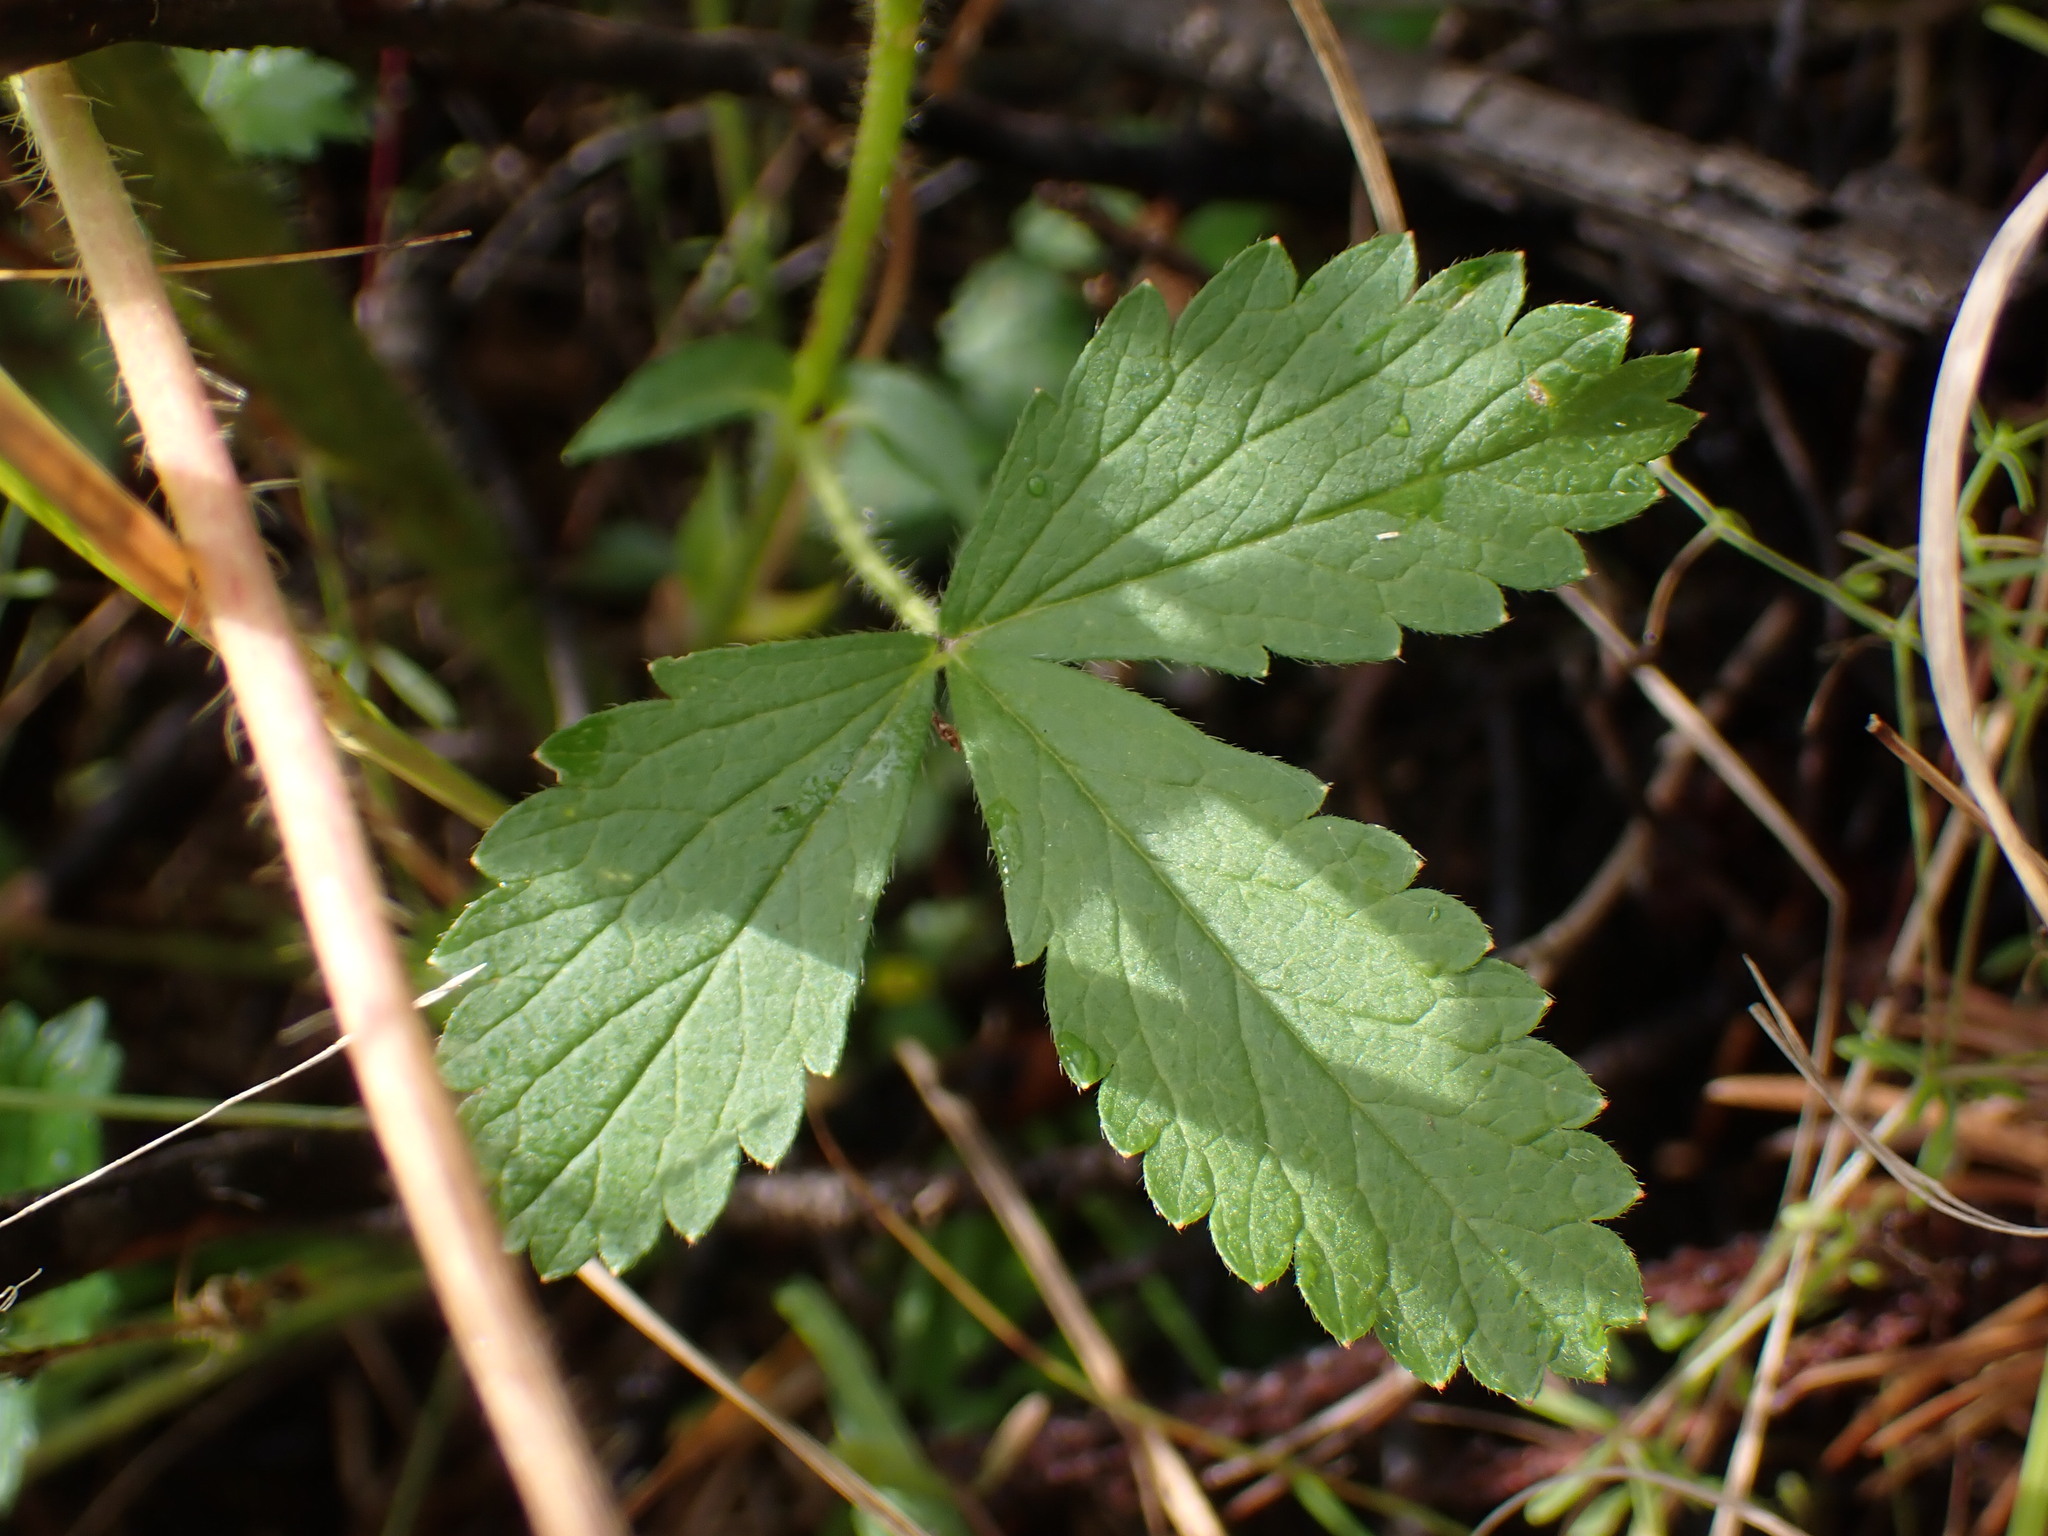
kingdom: Plantae
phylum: Tracheophyta
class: Magnoliopsida
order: Rosales
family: Rosaceae
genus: Potentilla
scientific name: Potentilla norvegica
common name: Ternate-leaved cinquefoil
